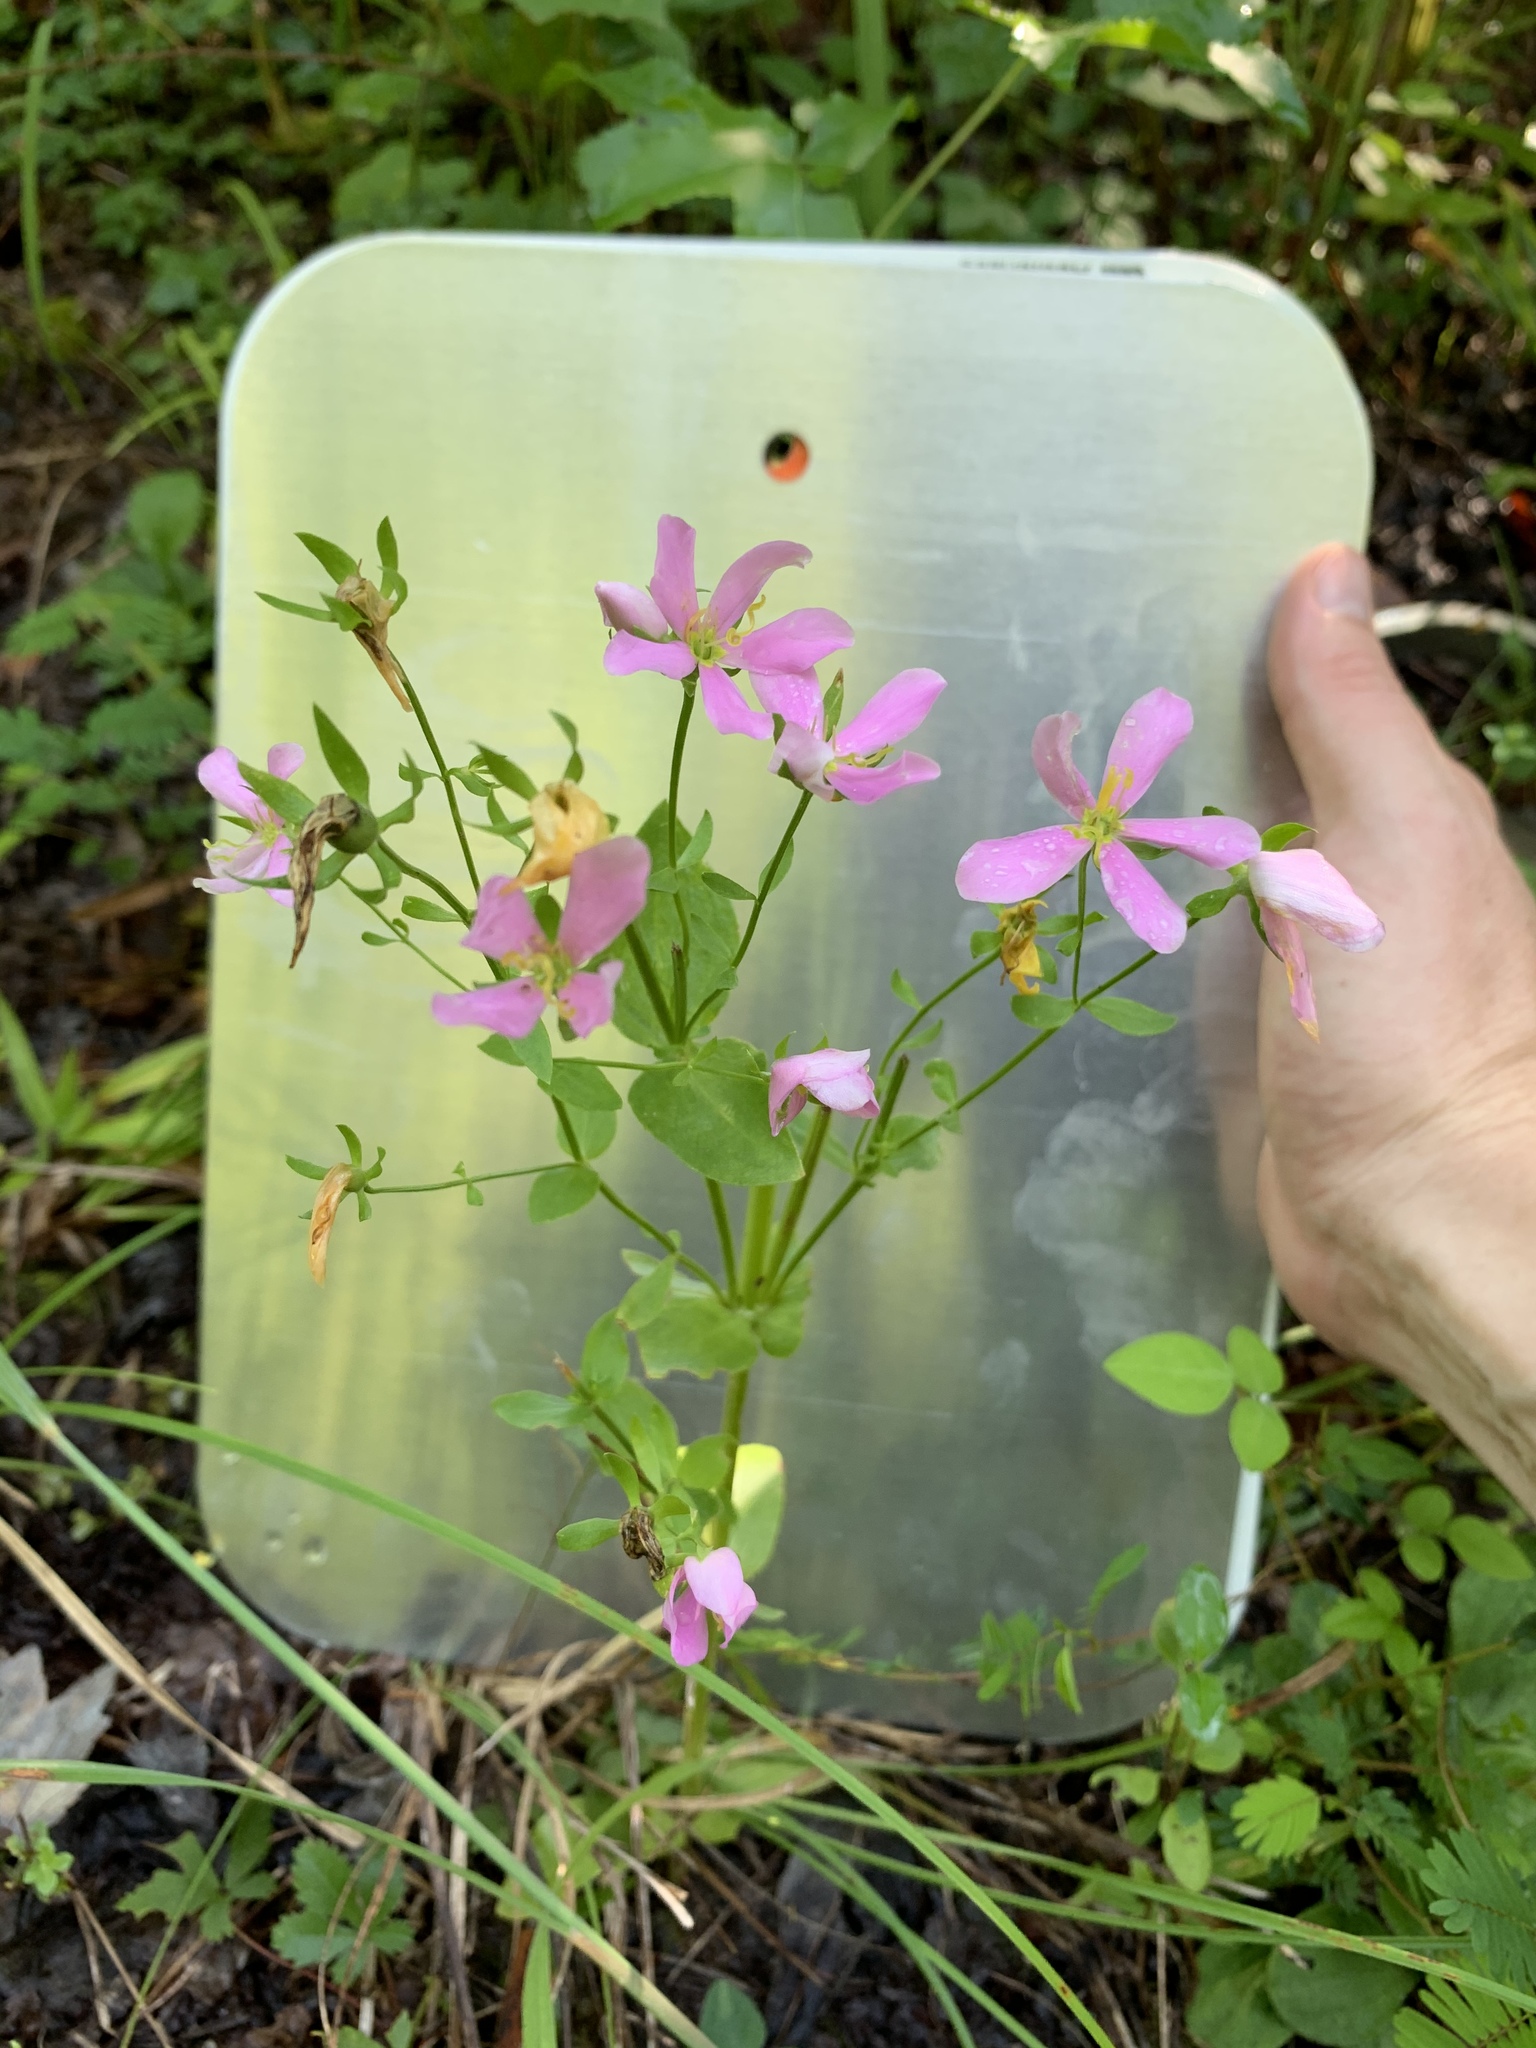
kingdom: Plantae
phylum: Tracheophyta
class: Magnoliopsida
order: Gentianales
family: Gentianaceae
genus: Sabatia
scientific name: Sabatia angularis
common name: Rose-pink
